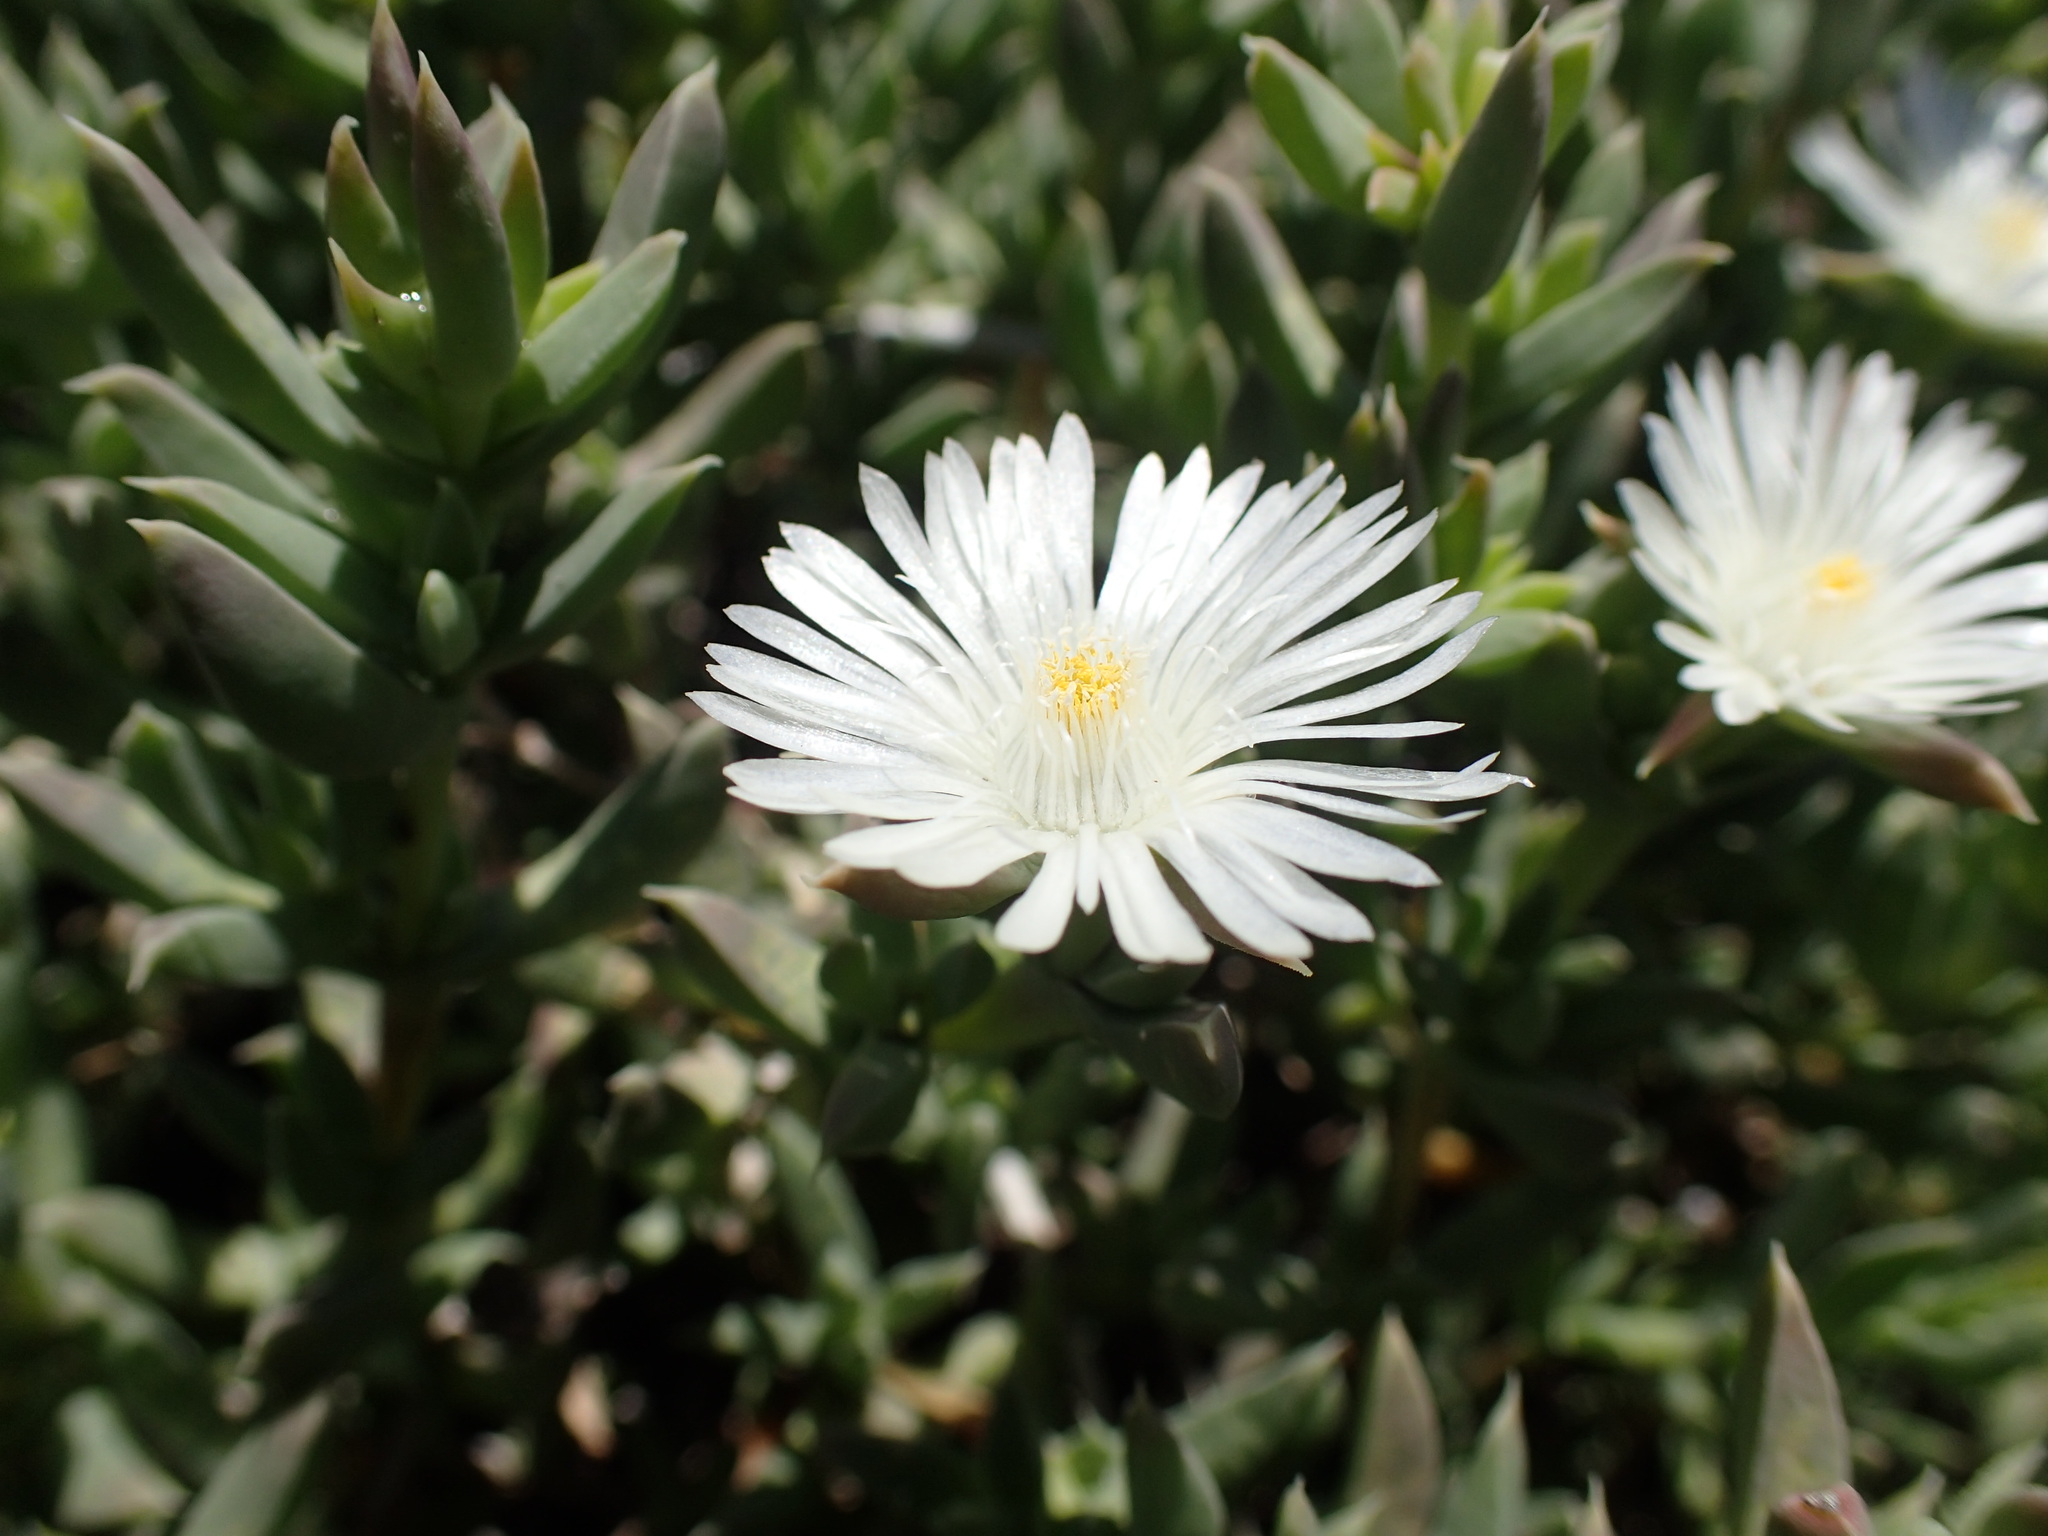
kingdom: Plantae
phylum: Tracheophyta
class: Magnoliopsida
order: Caryophyllales
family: Aizoaceae
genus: Delosperma
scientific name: Delosperma litorale
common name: Seaside delosperma
